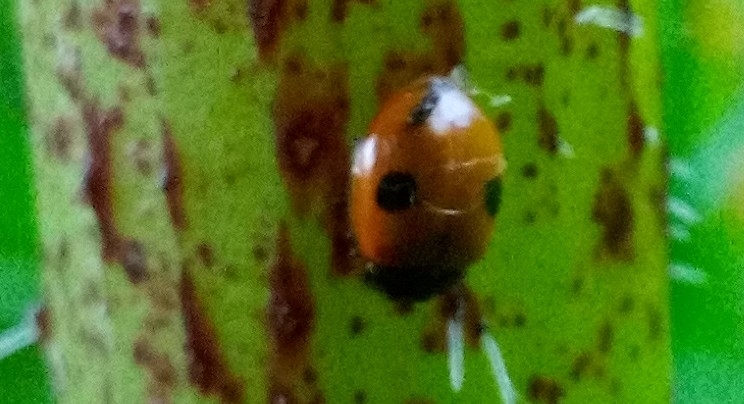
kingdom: Animalia
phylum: Arthropoda
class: Insecta
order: Coleoptera
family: Coccinellidae
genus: Adalia
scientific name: Adalia bipunctata
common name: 2-spot ladybird
